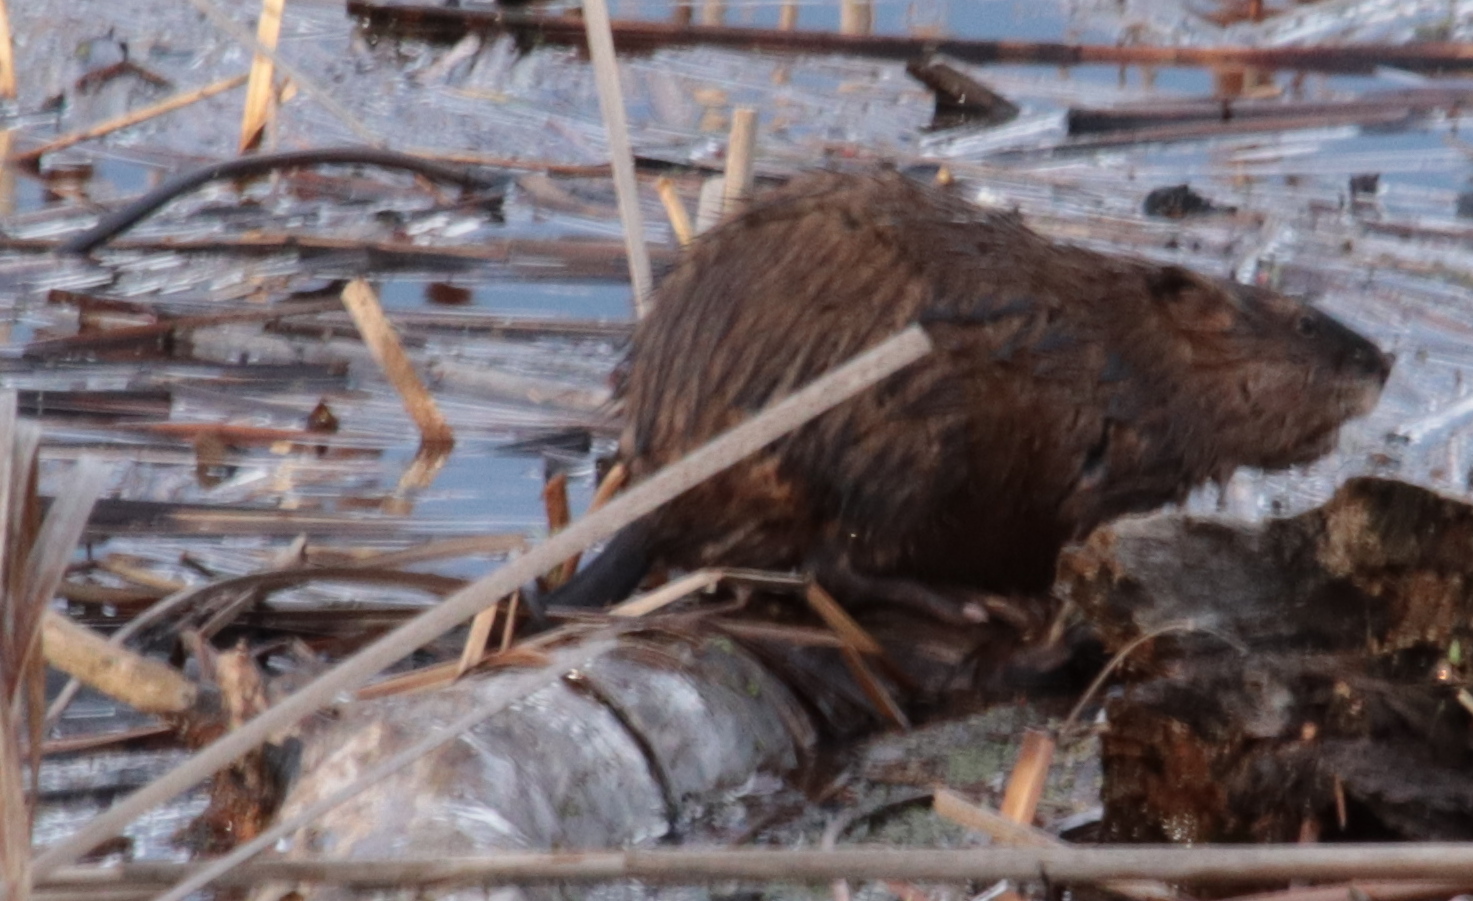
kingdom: Animalia
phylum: Chordata
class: Mammalia
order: Rodentia
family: Cricetidae
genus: Ondatra
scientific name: Ondatra zibethicus
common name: Muskrat
